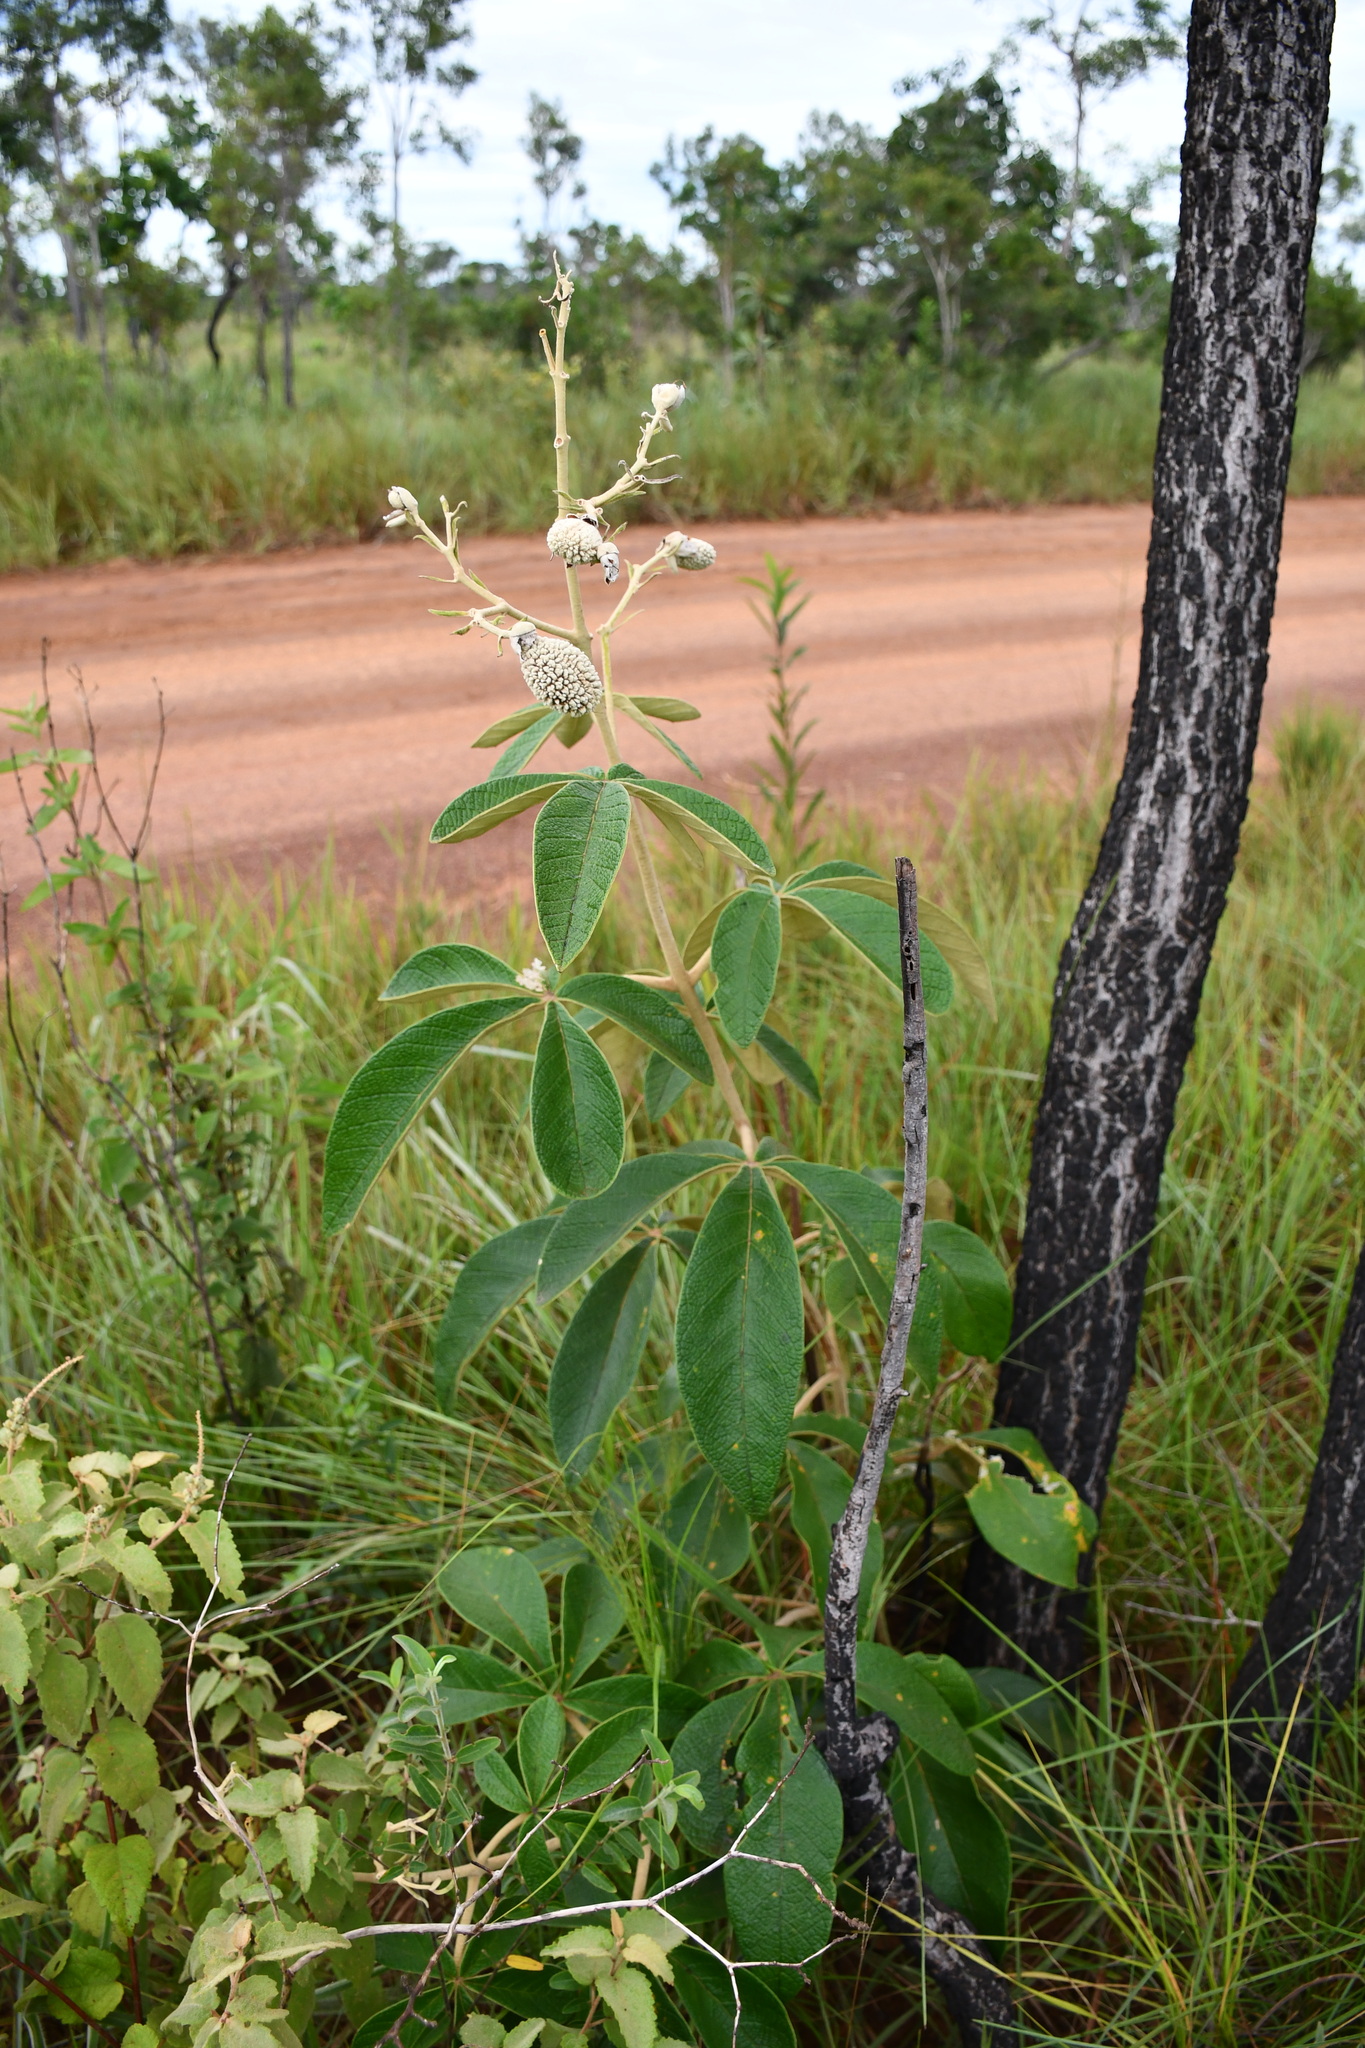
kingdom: Plantae
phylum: Tracheophyta
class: Magnoliopsida
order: Lamiales
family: Bignoniaceae
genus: Zeyheria
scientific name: Zeyheria montana
